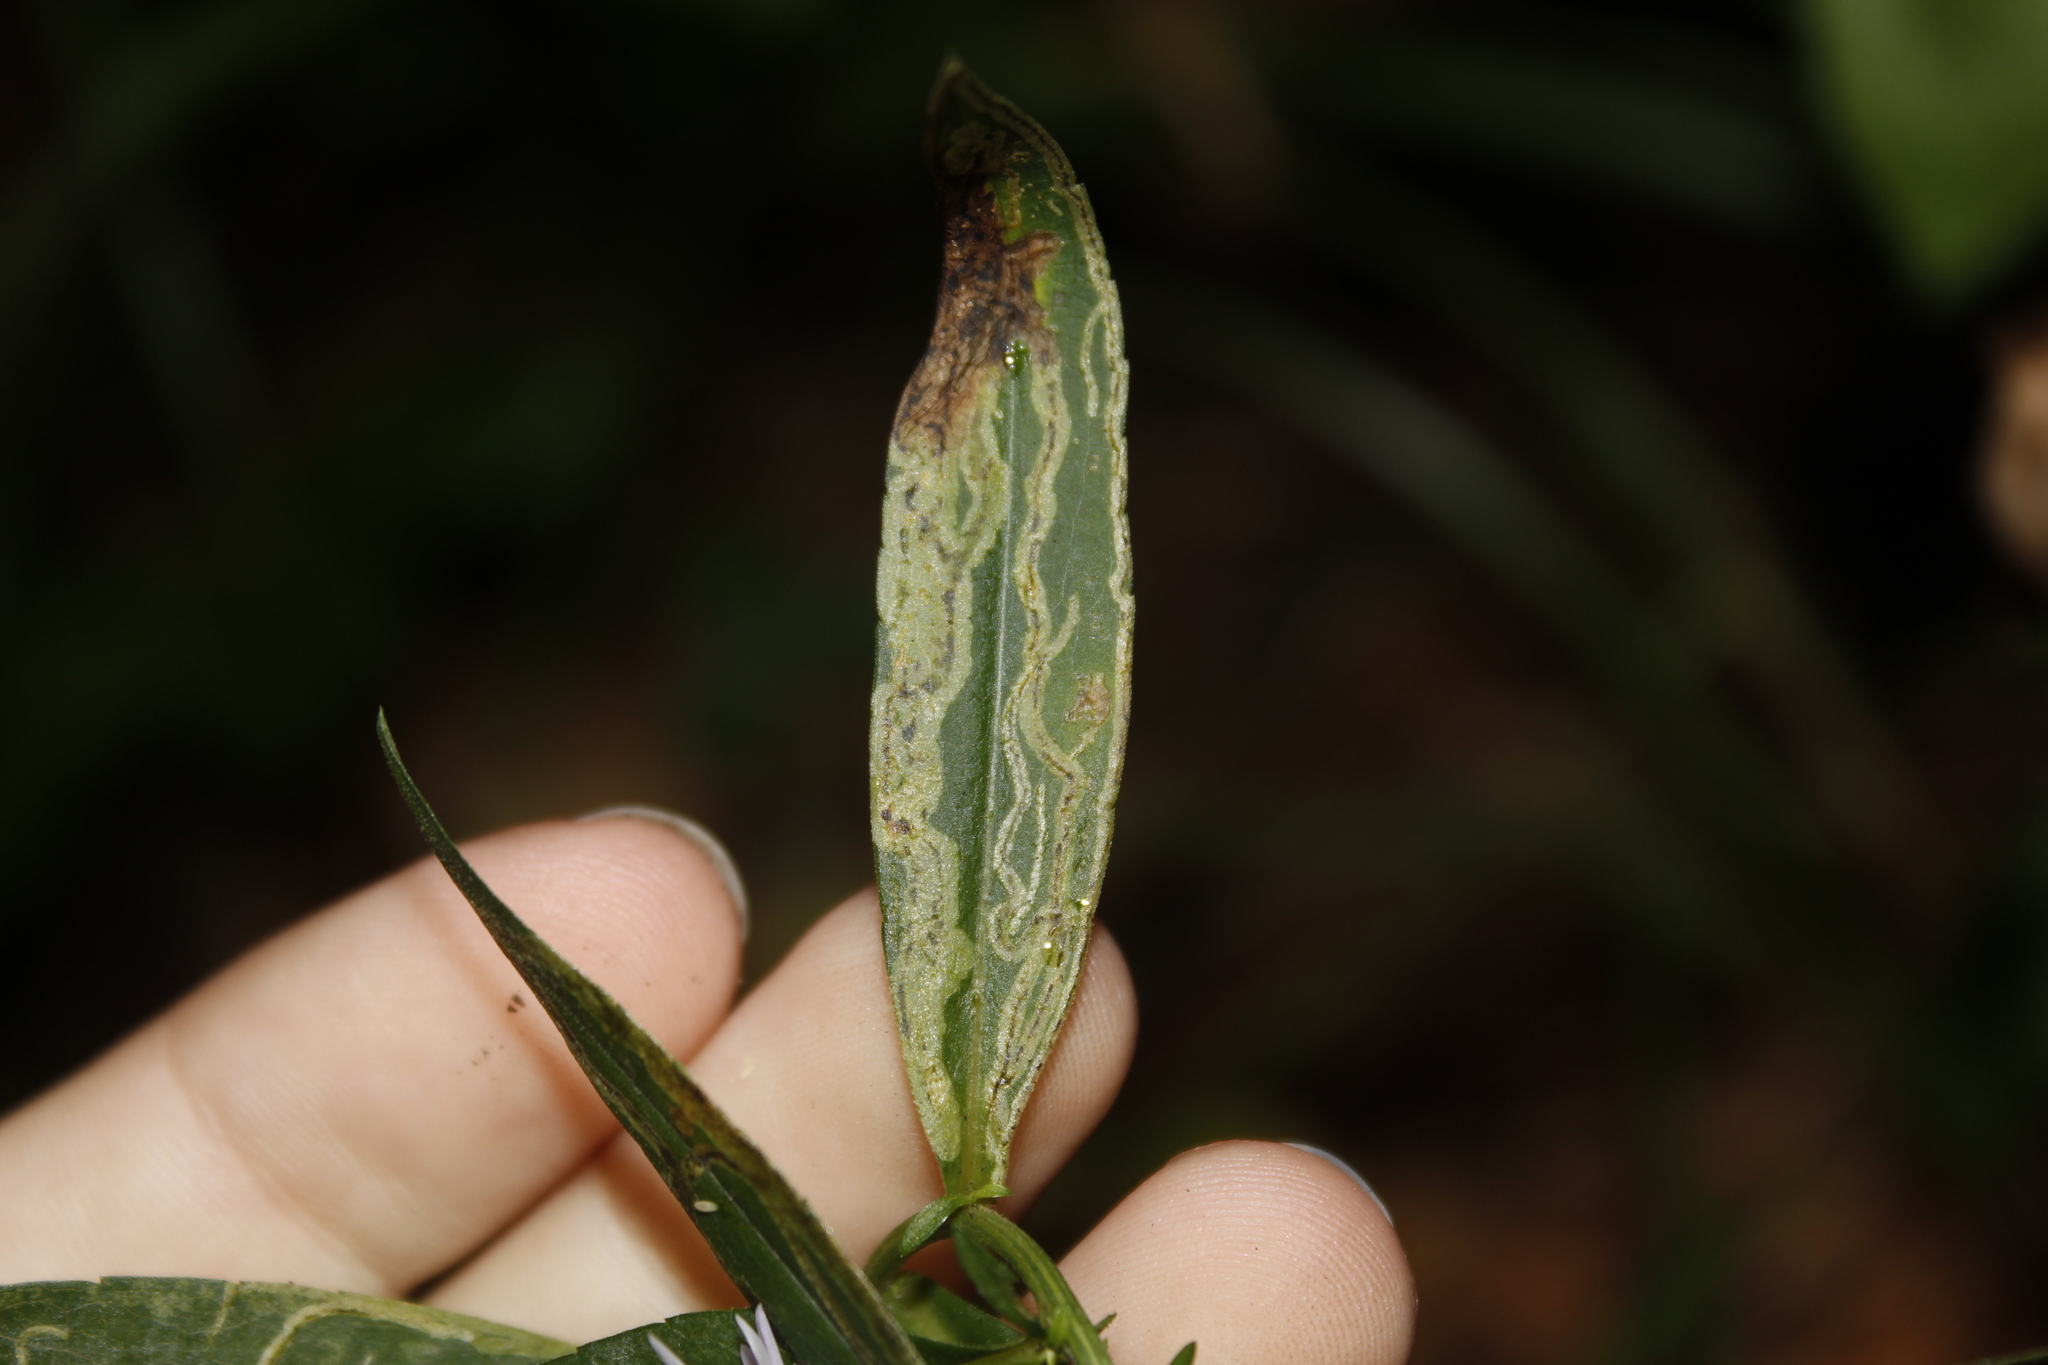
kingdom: Animalia
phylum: Arthropoda
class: Insecta
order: Diptera
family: Agromyzidae
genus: Liriomyza
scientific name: Liriomyza eupatorii
